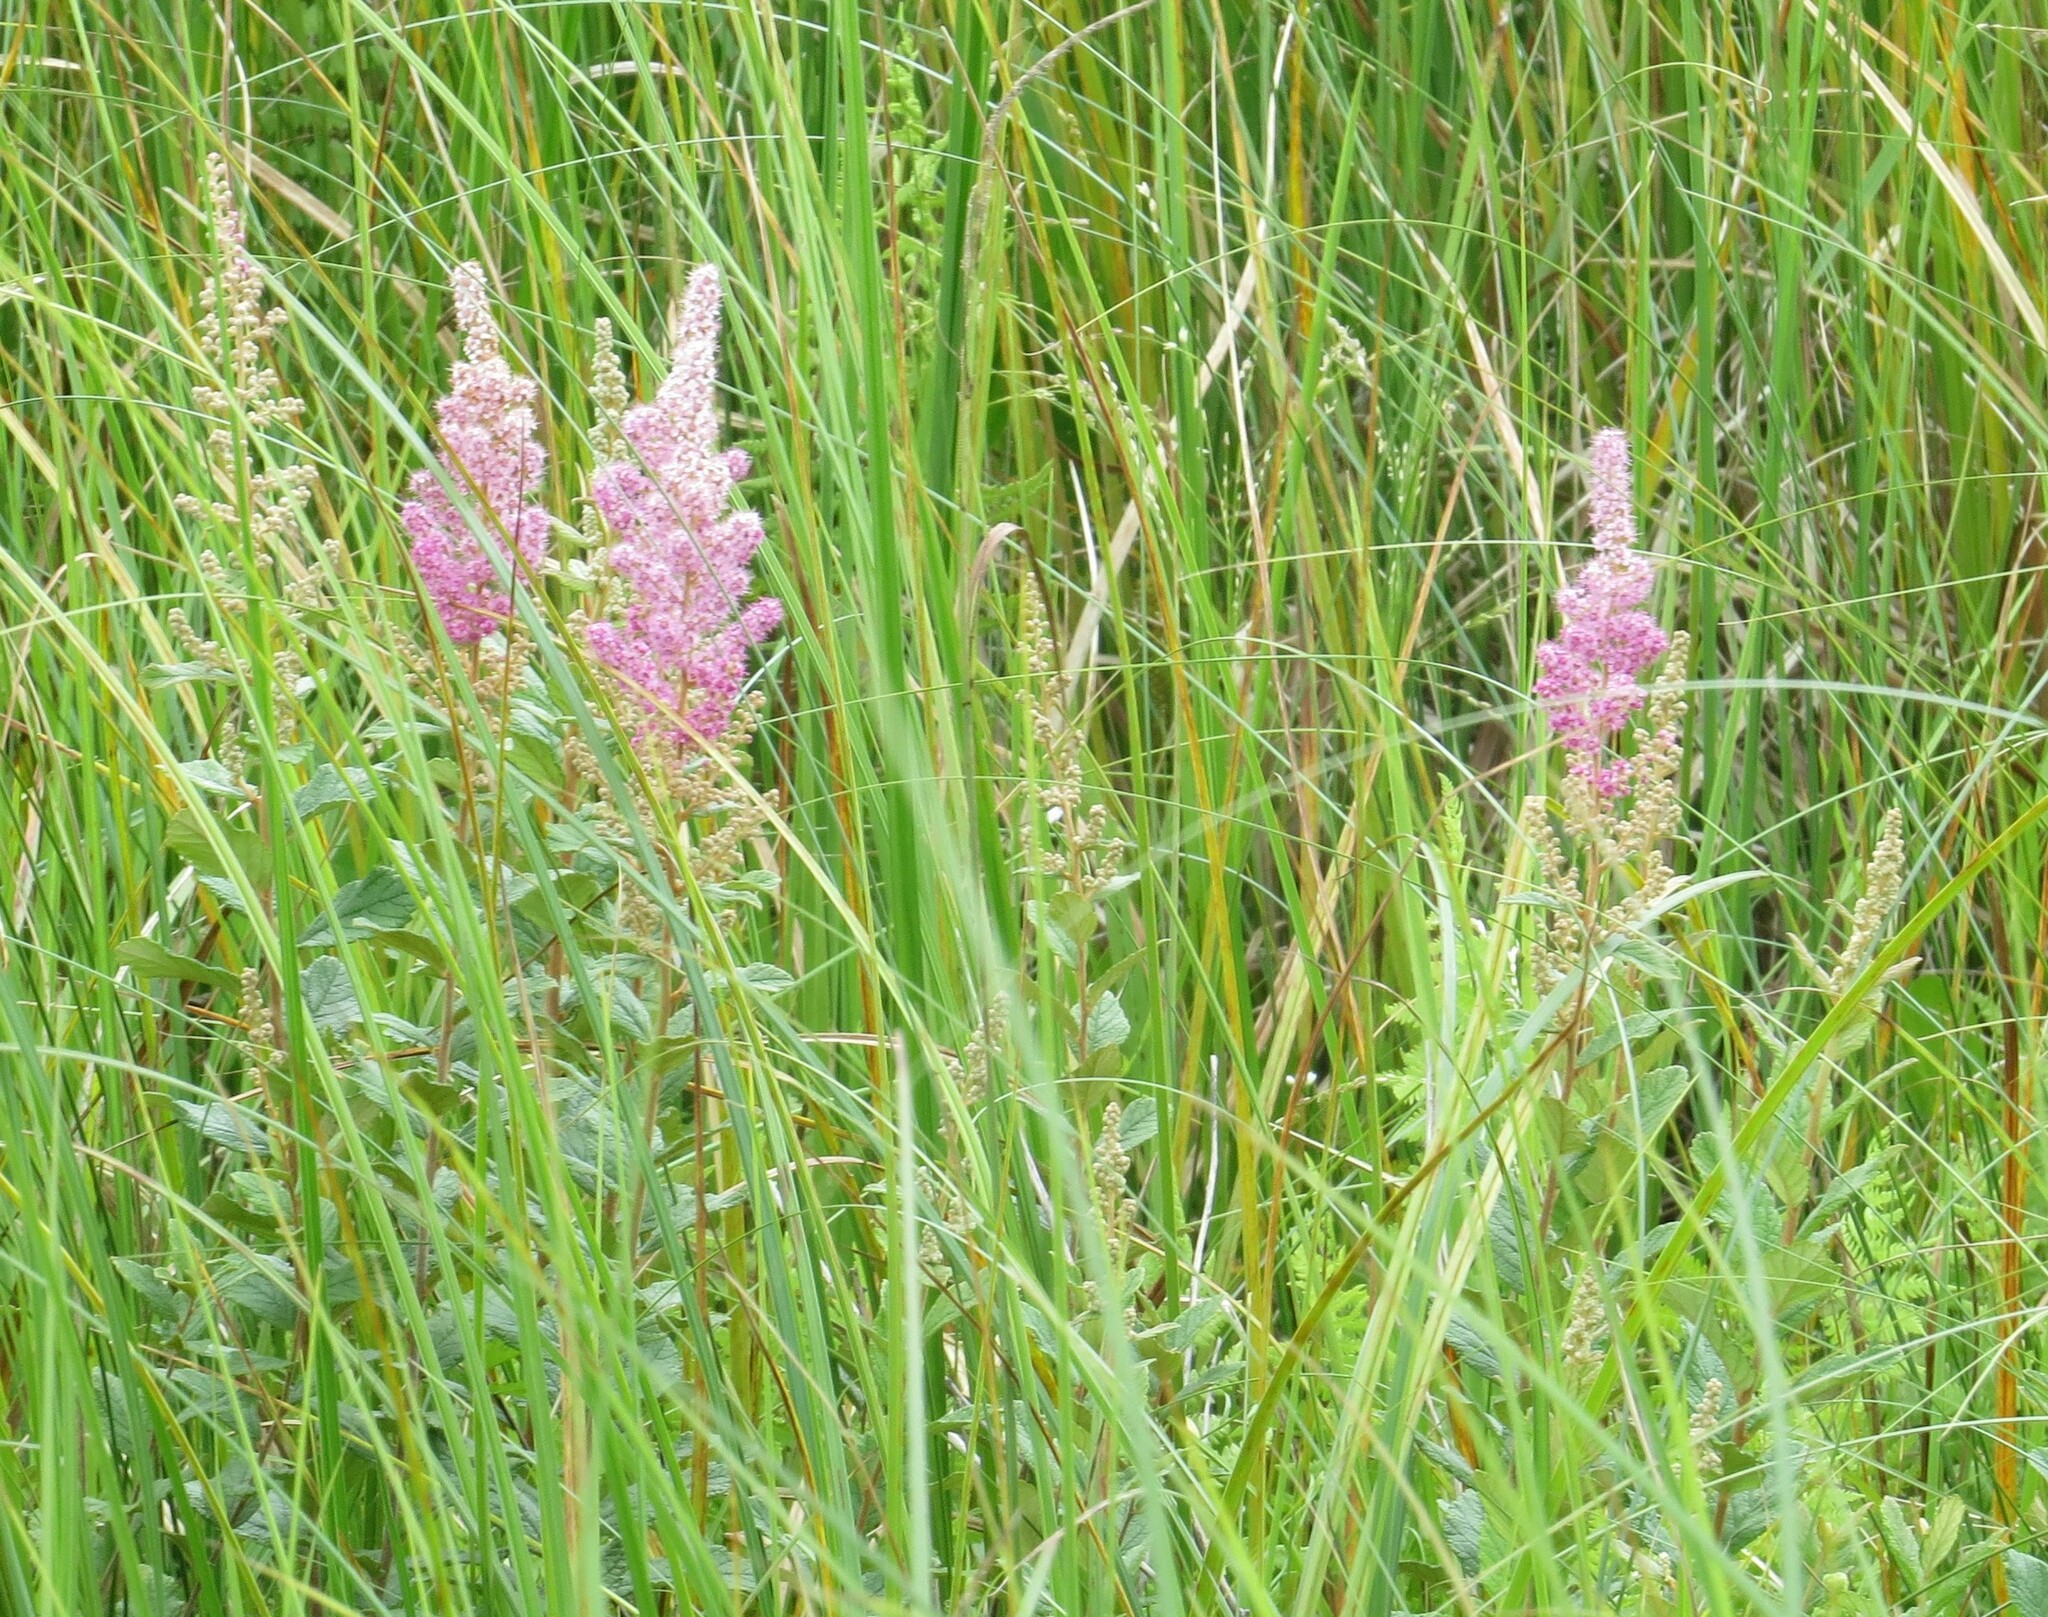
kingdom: Plantae
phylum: Tracheophyta
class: Magnoliopsida
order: Rosales
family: Rosaceae
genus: Spiraea
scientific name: Spiraea tomentosa
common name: Hardhack
